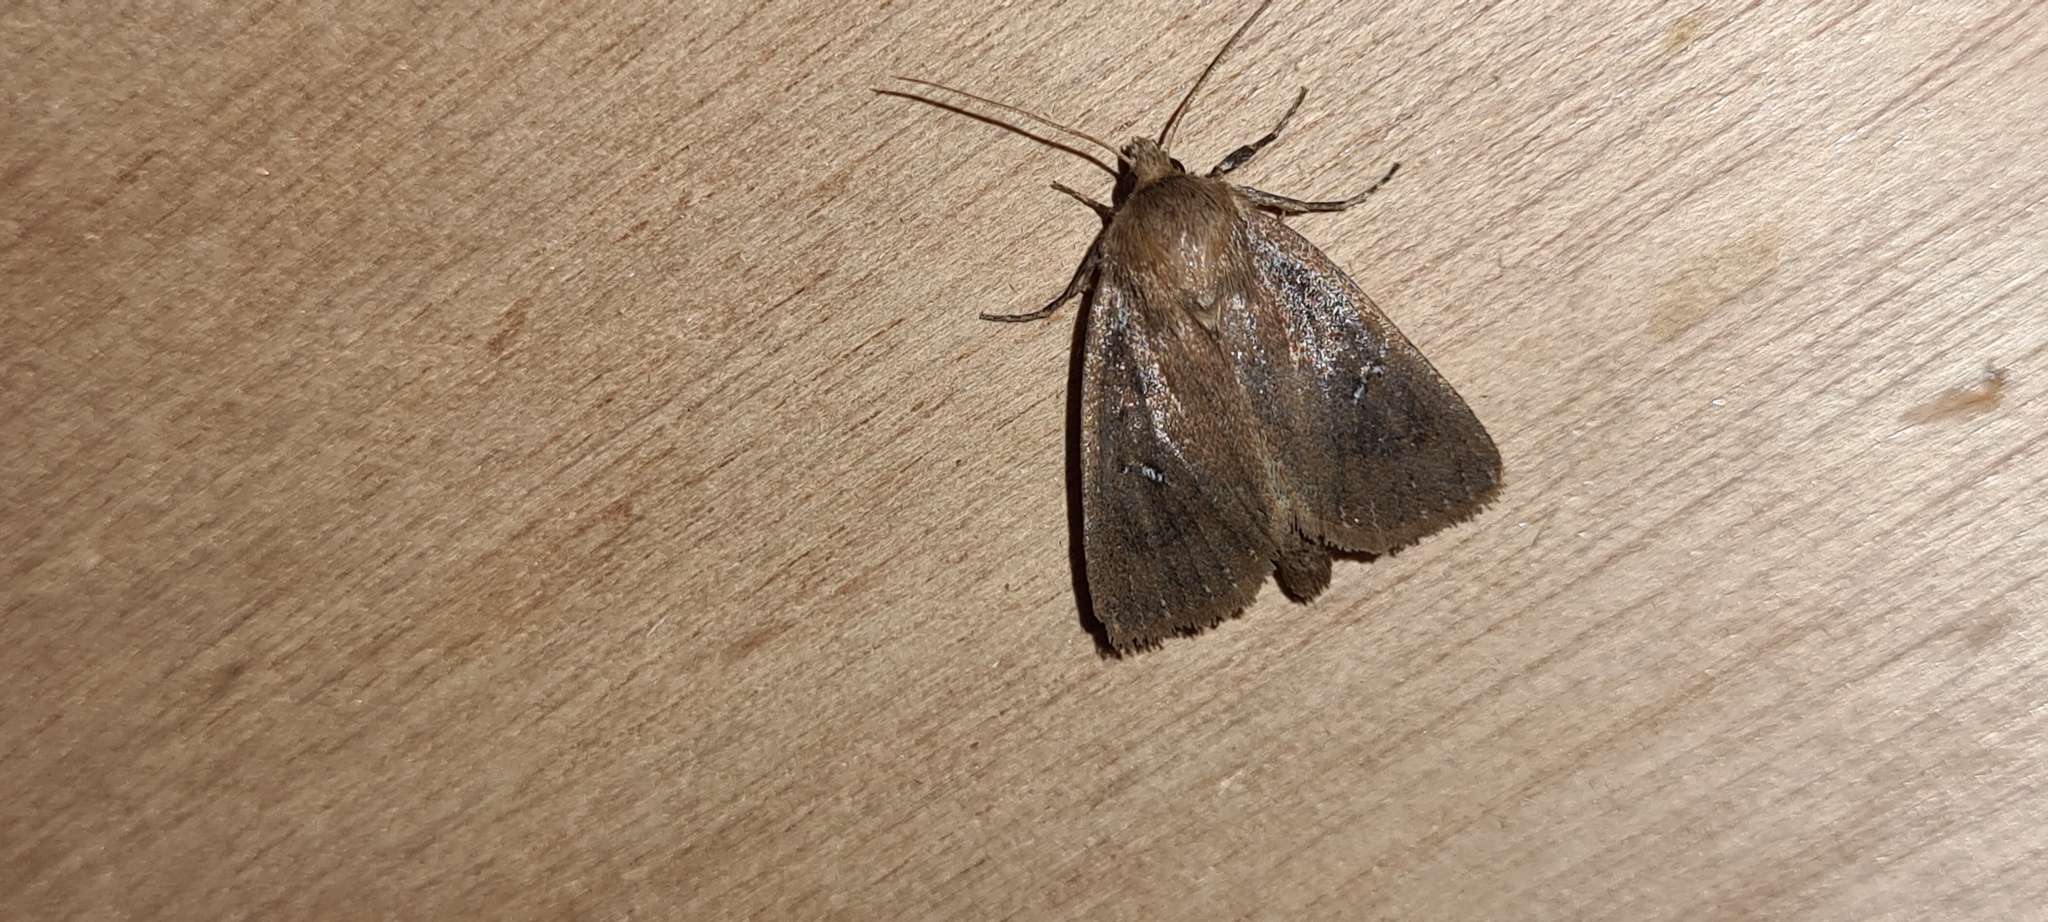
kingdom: Animalia
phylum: Arthropoda
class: Insecta
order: Lepidoptera
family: Noctuidae
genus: Lenisa
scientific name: Lenisa geminipuncta
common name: Twin-spotted wainscot
